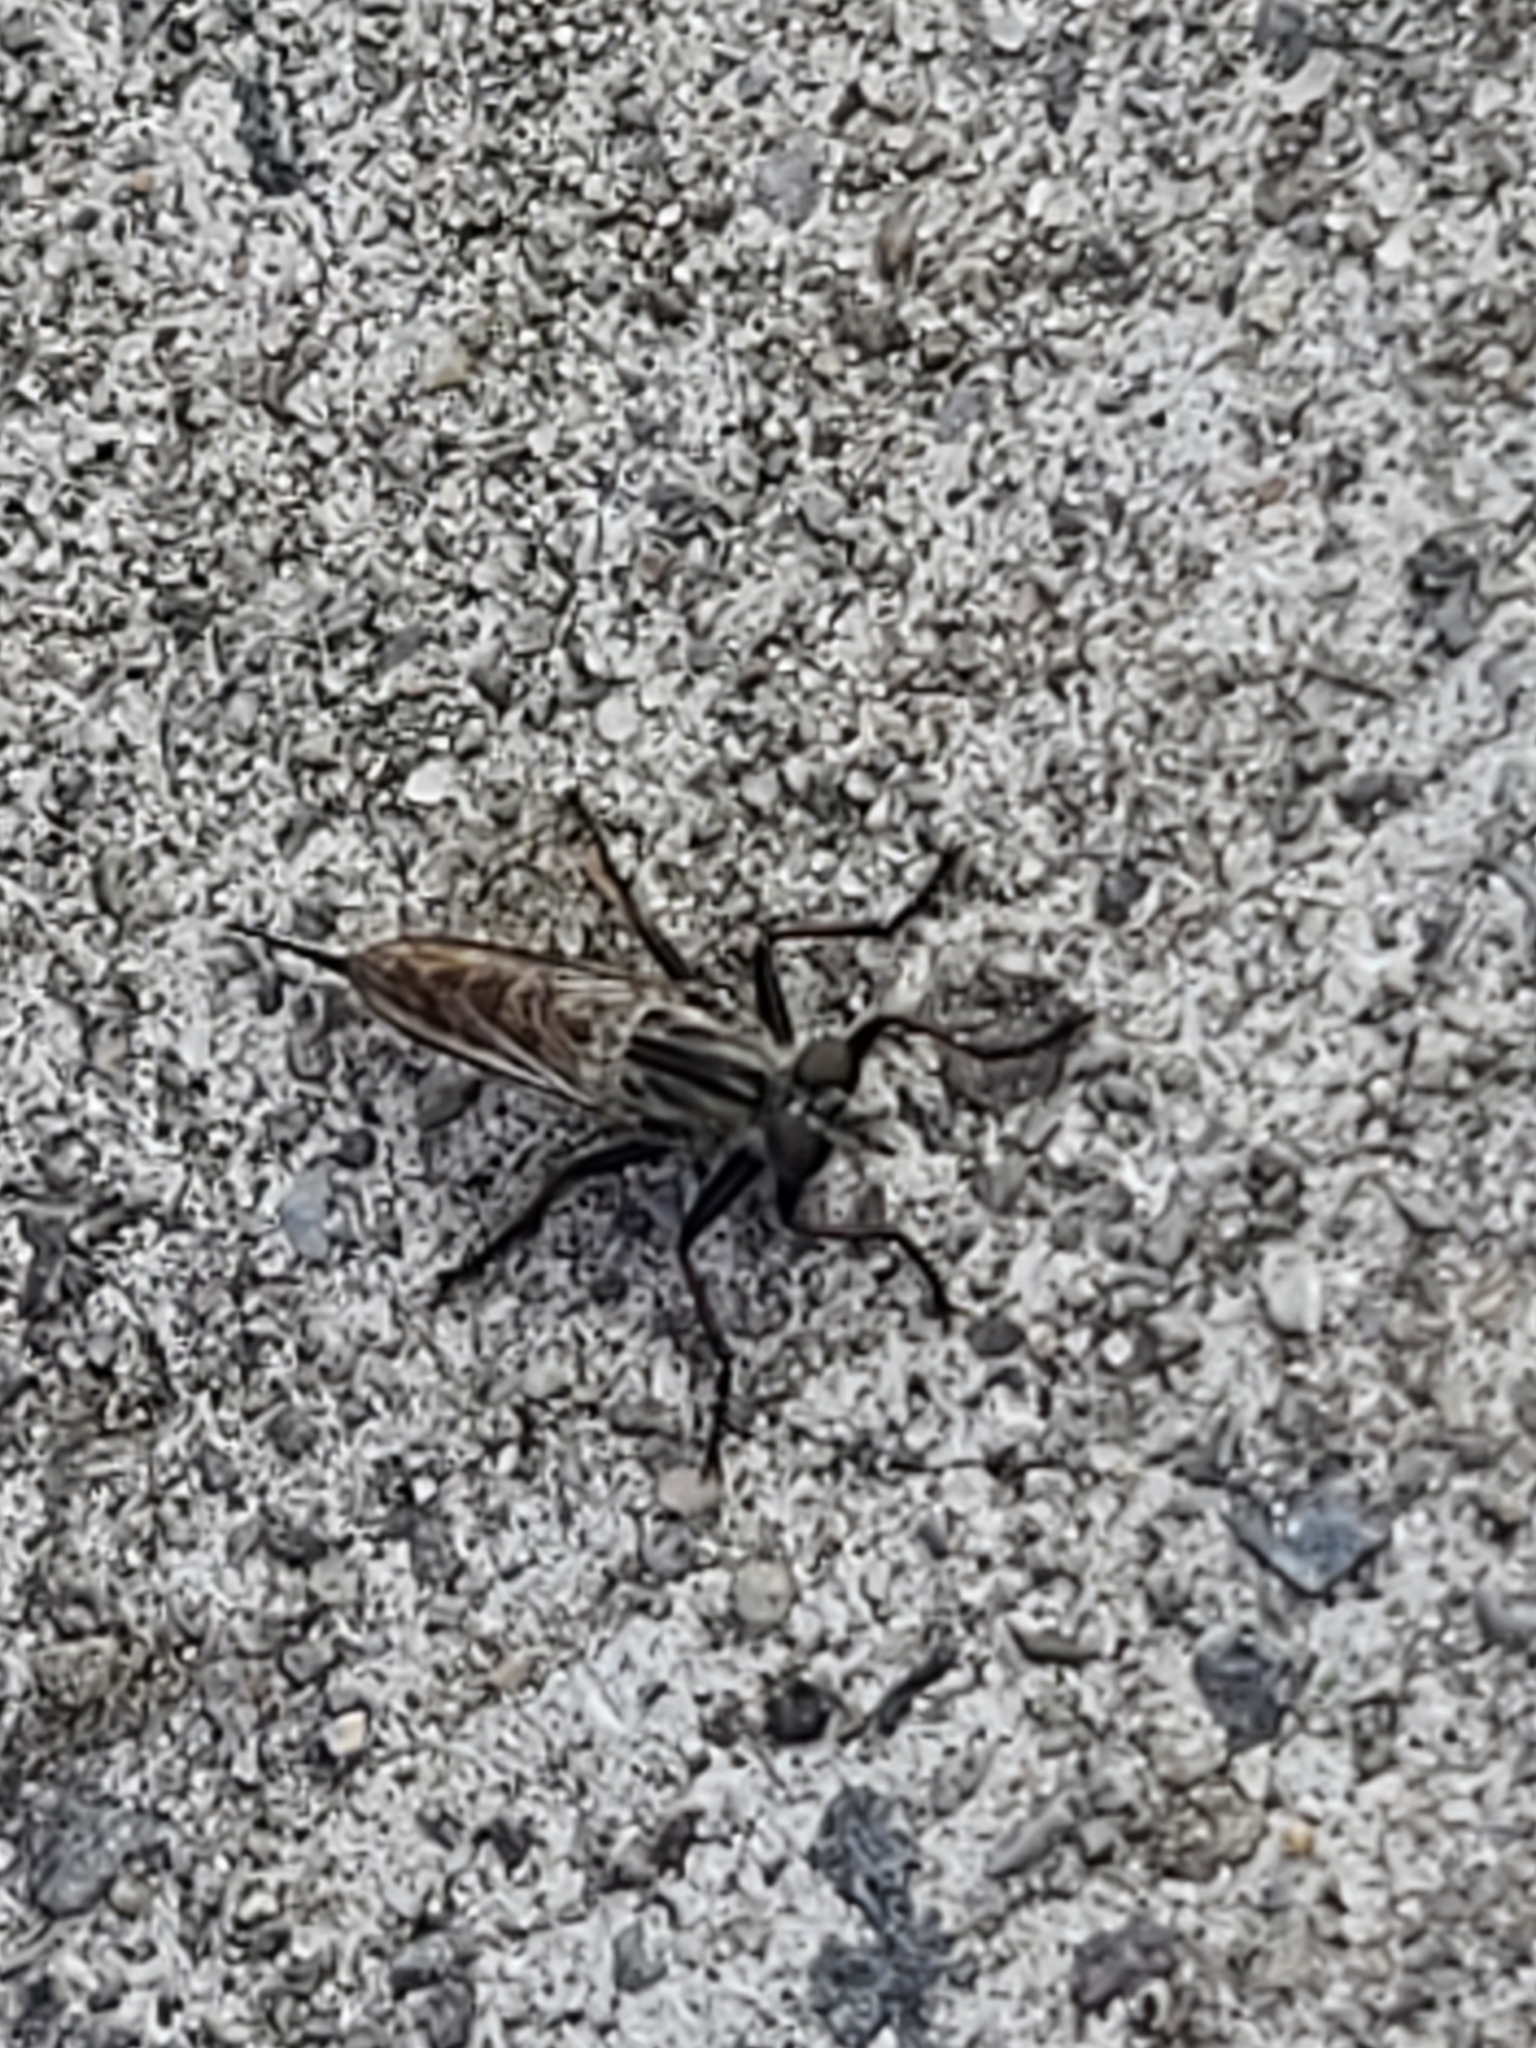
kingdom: Animalia
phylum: Arthropoda
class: Insecta
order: Diptera
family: Asilidae
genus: Efferia
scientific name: Efferia aestuans
